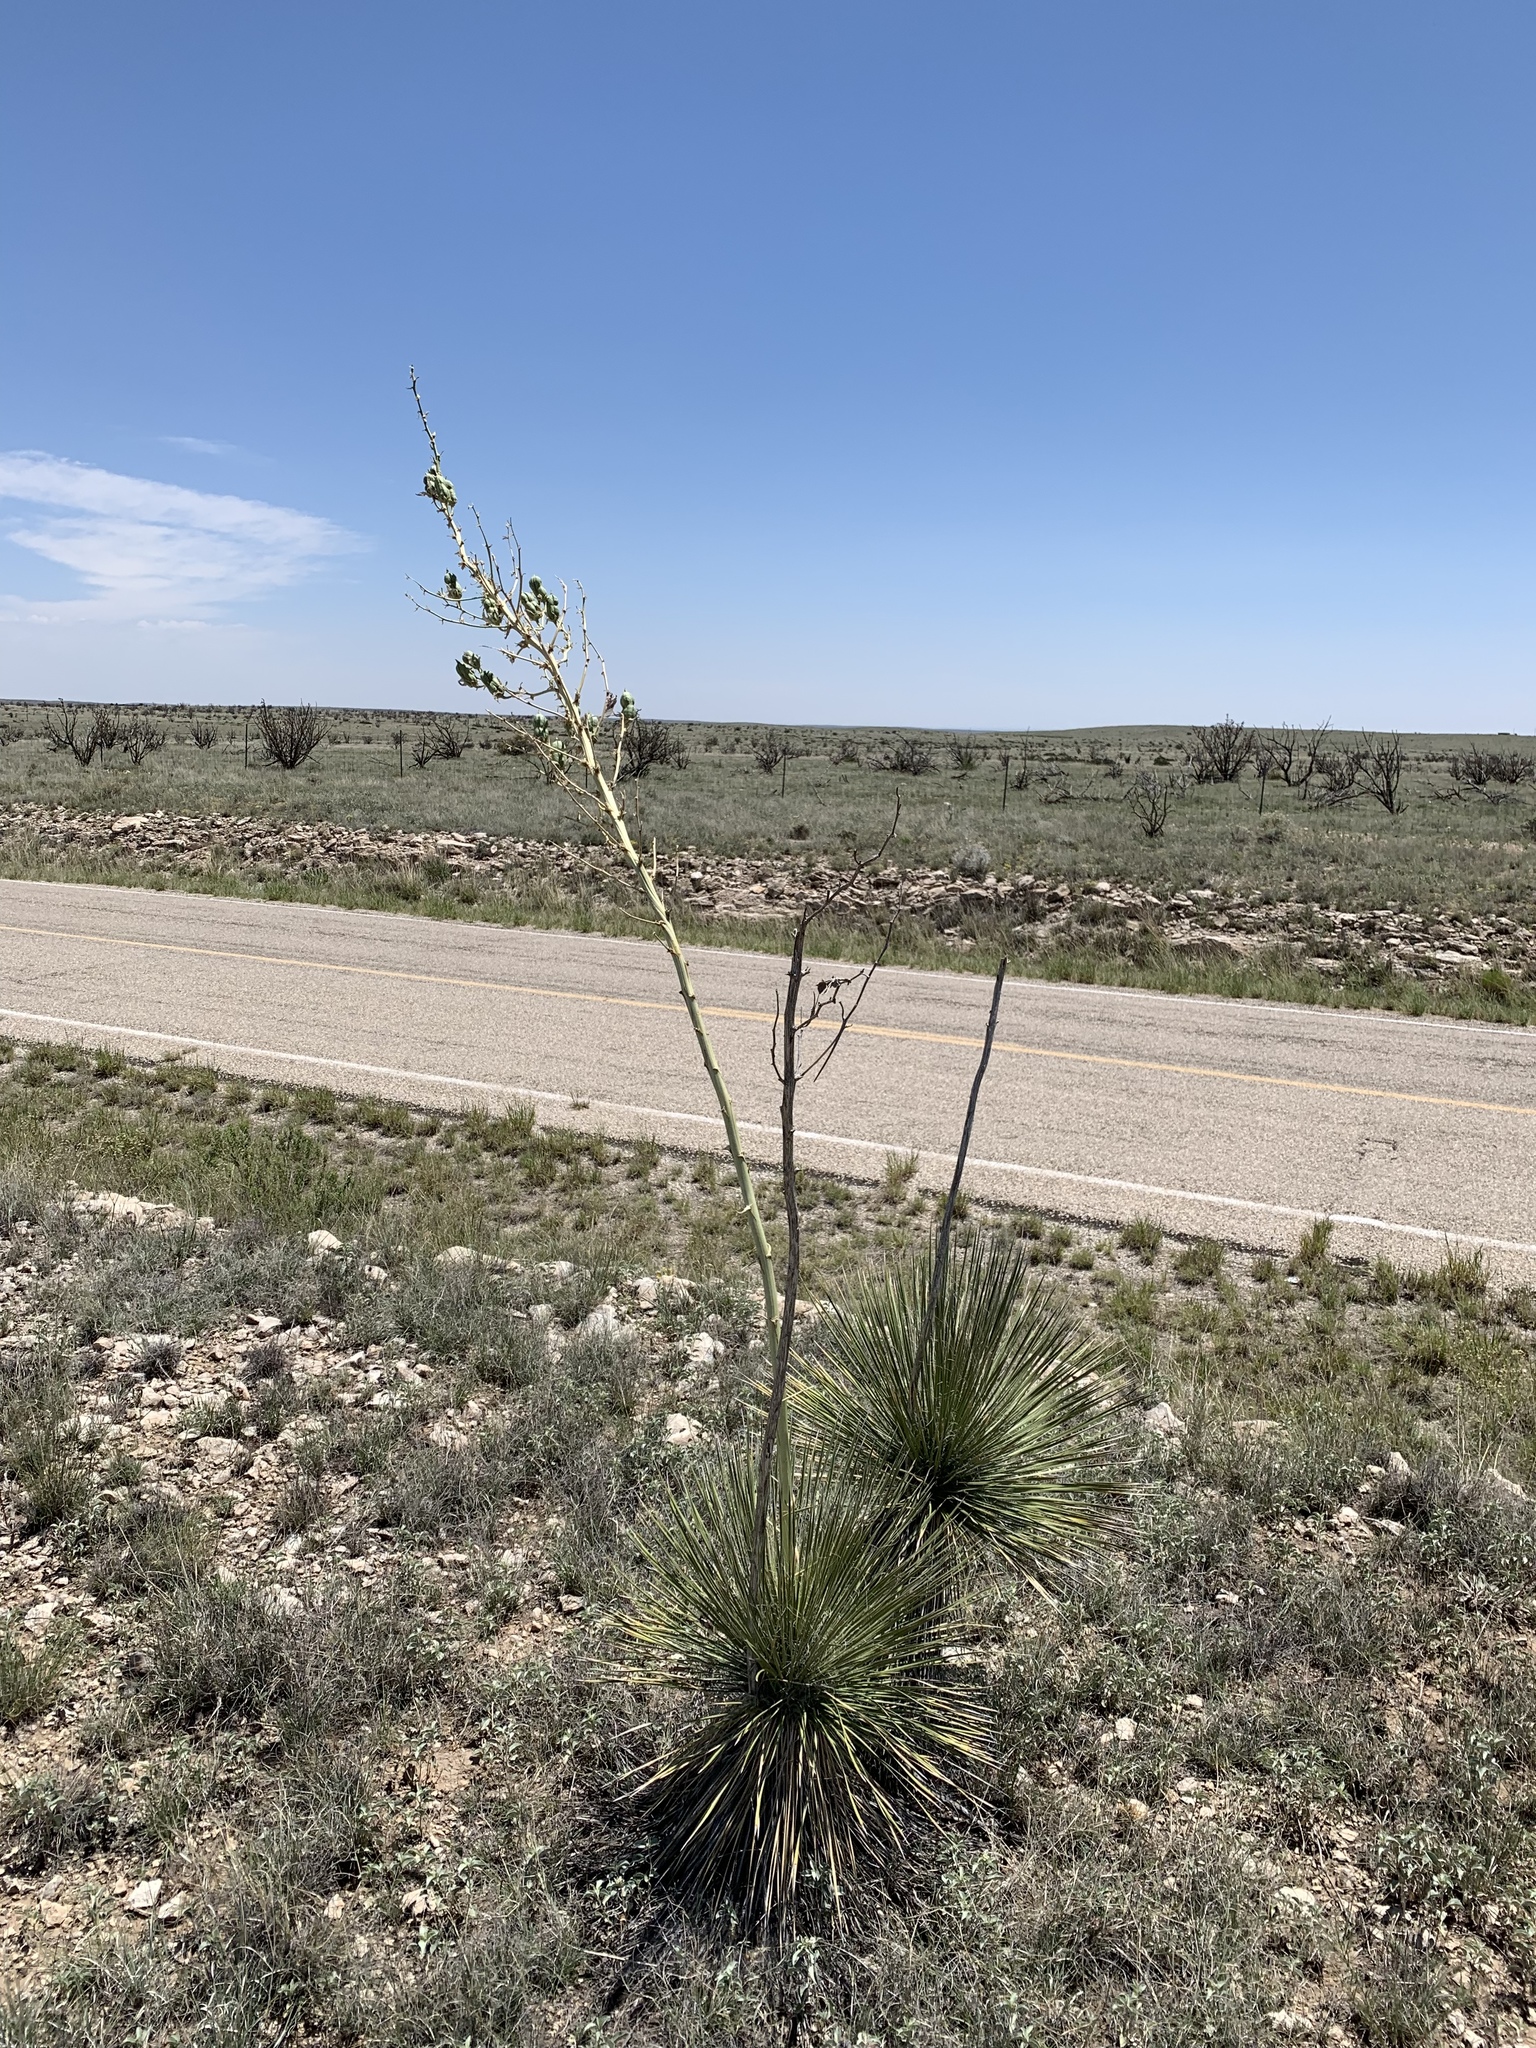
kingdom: Plantae
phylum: Tracheophyta
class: Liliopsida
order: Asparagales
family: Asparagaceae
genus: Yucca
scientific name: Yucca elata
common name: Palmella
